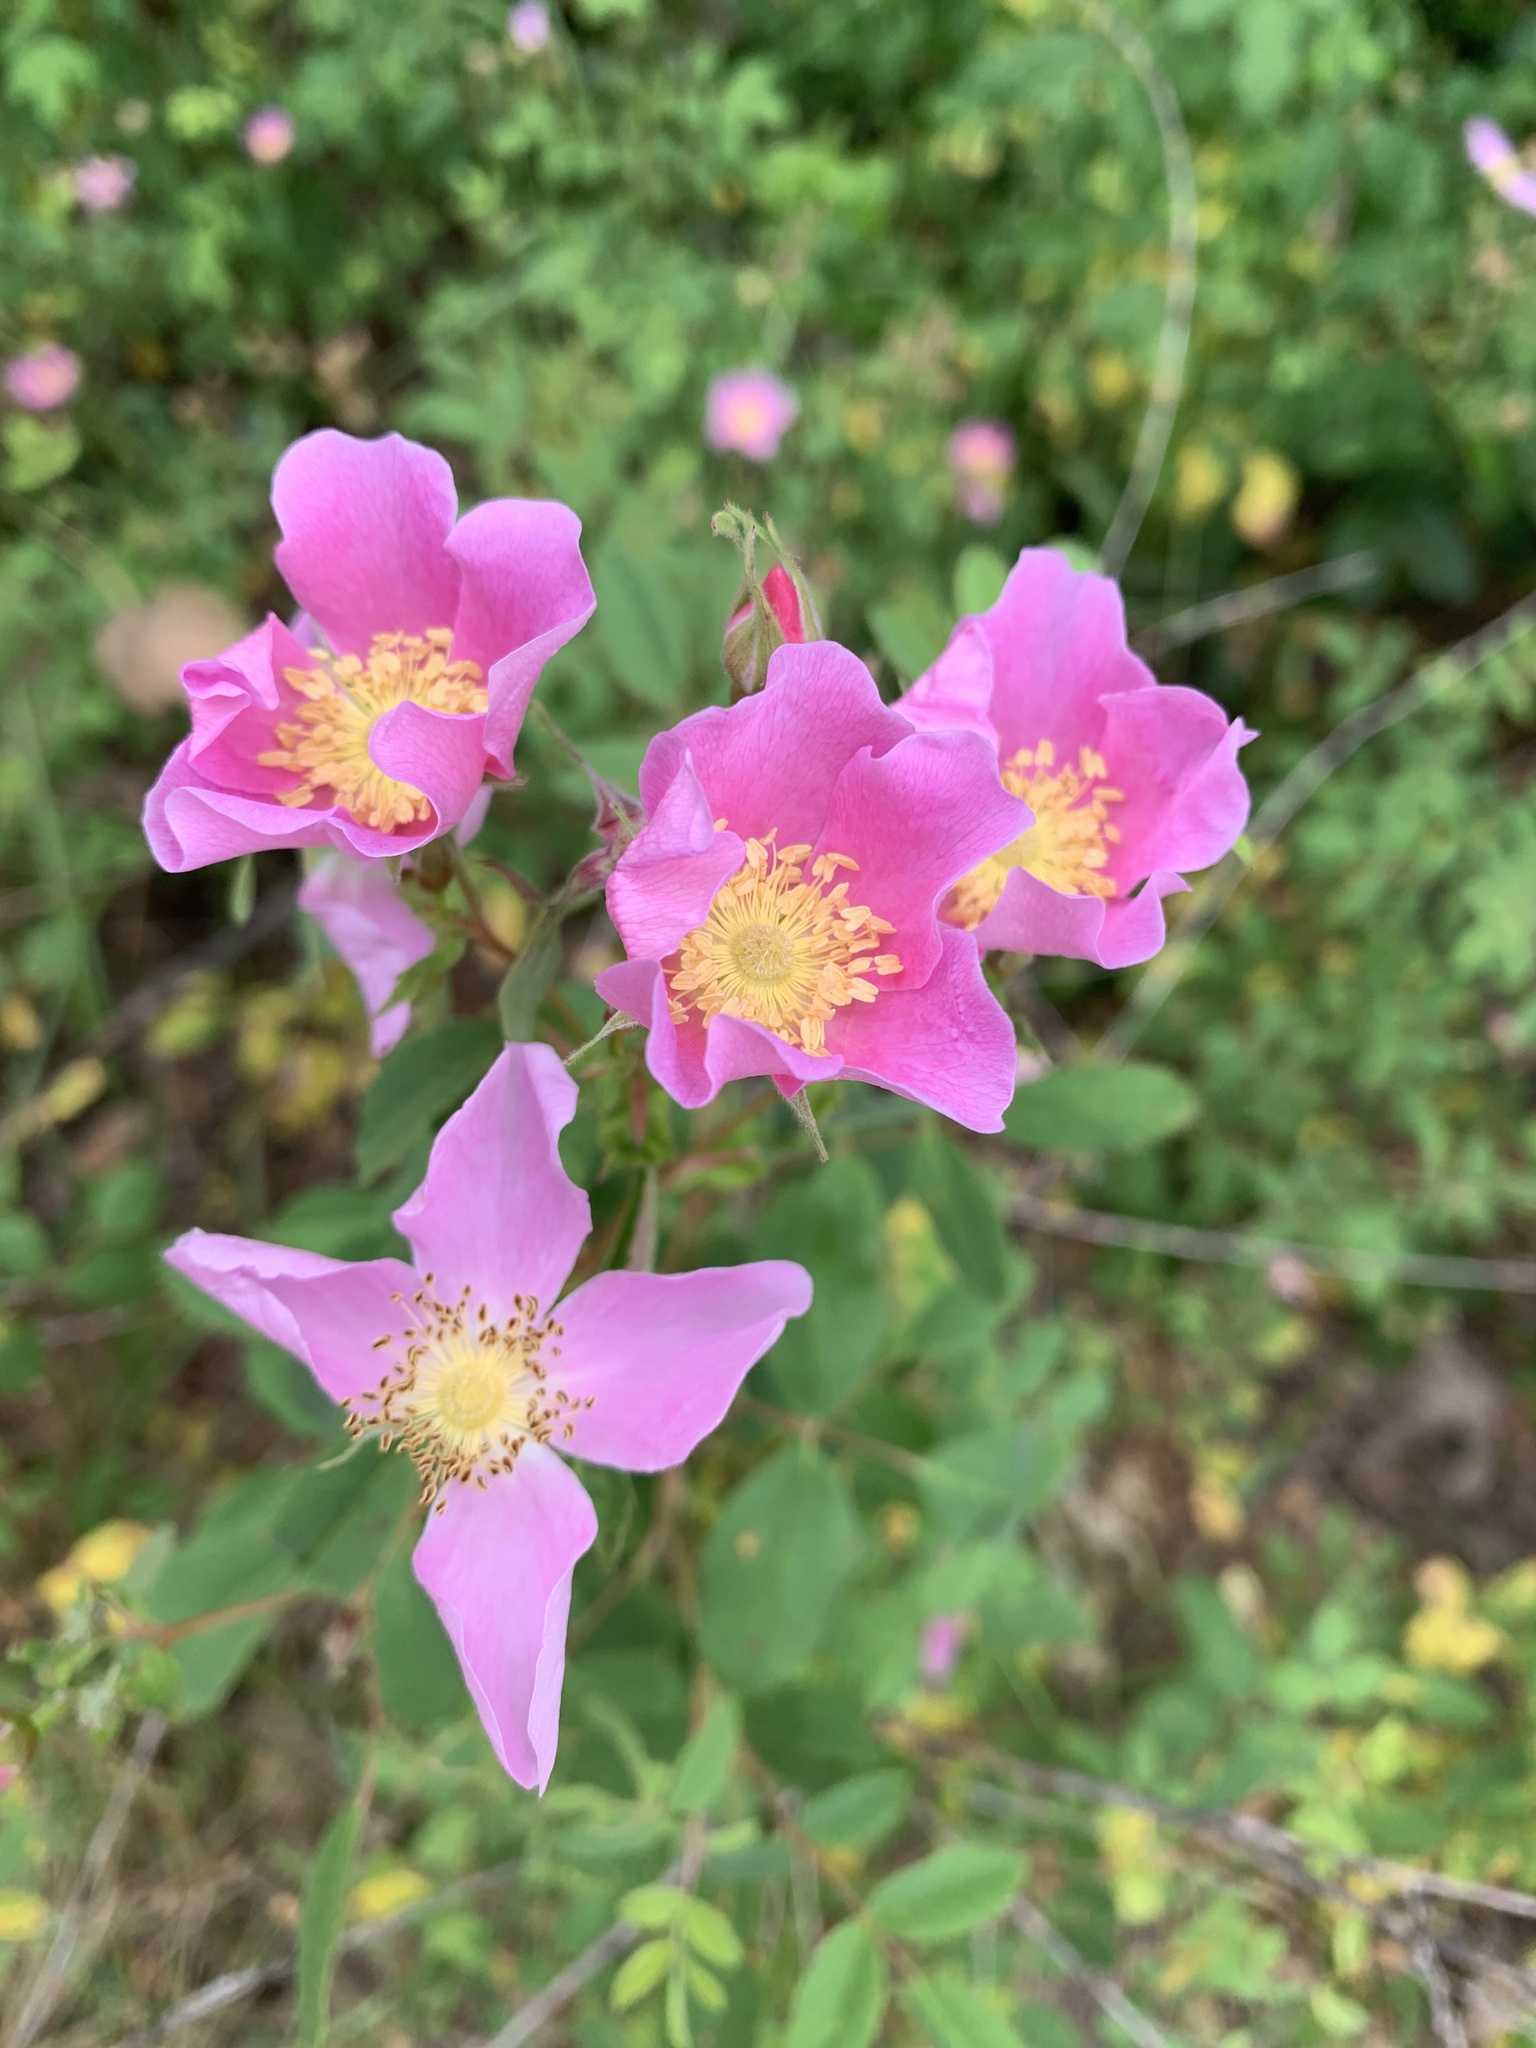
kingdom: Plantae
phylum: Tracheophyta
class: Magnoliopsida
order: Rosales
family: Rosaceae
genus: Rosa
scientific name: Rosa californica
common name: California rose
